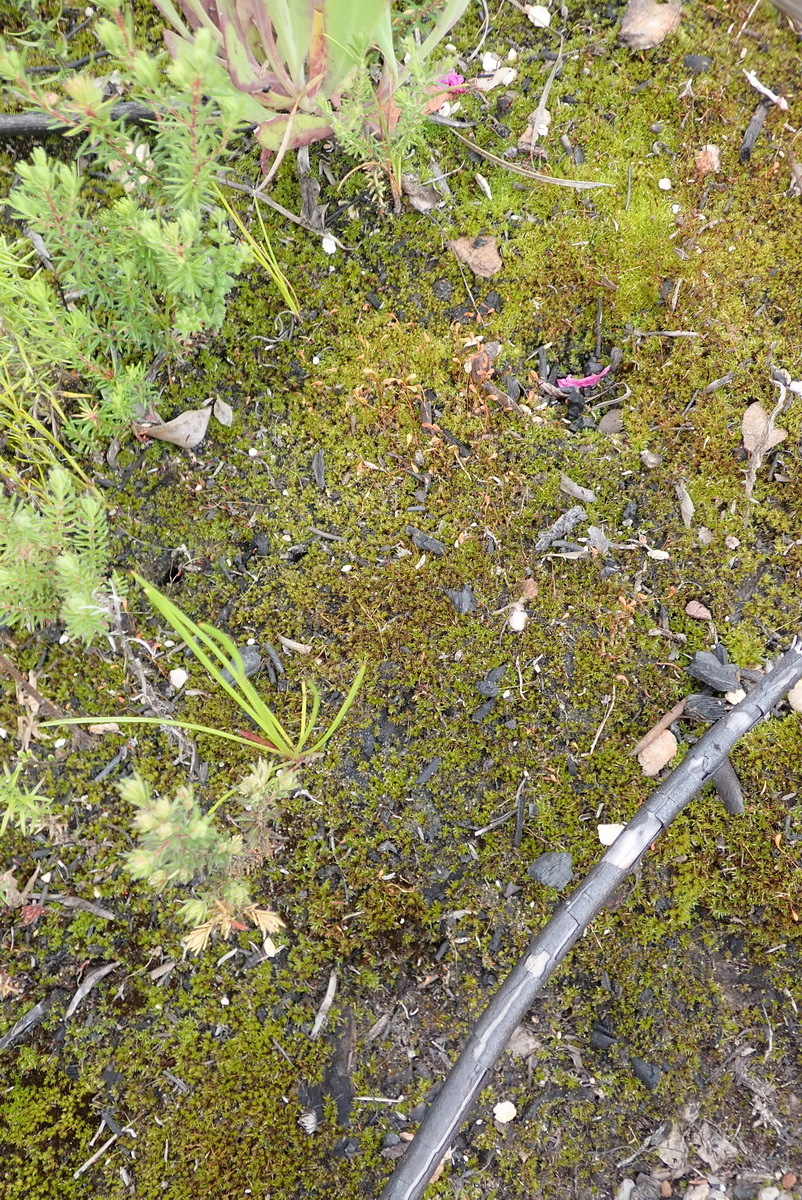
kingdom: Plantae
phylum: Bryophyta
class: Bryopsida
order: Funariales
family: Funariaceae
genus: Funaria
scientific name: Funaria hygrometrica
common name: Common cord moss
